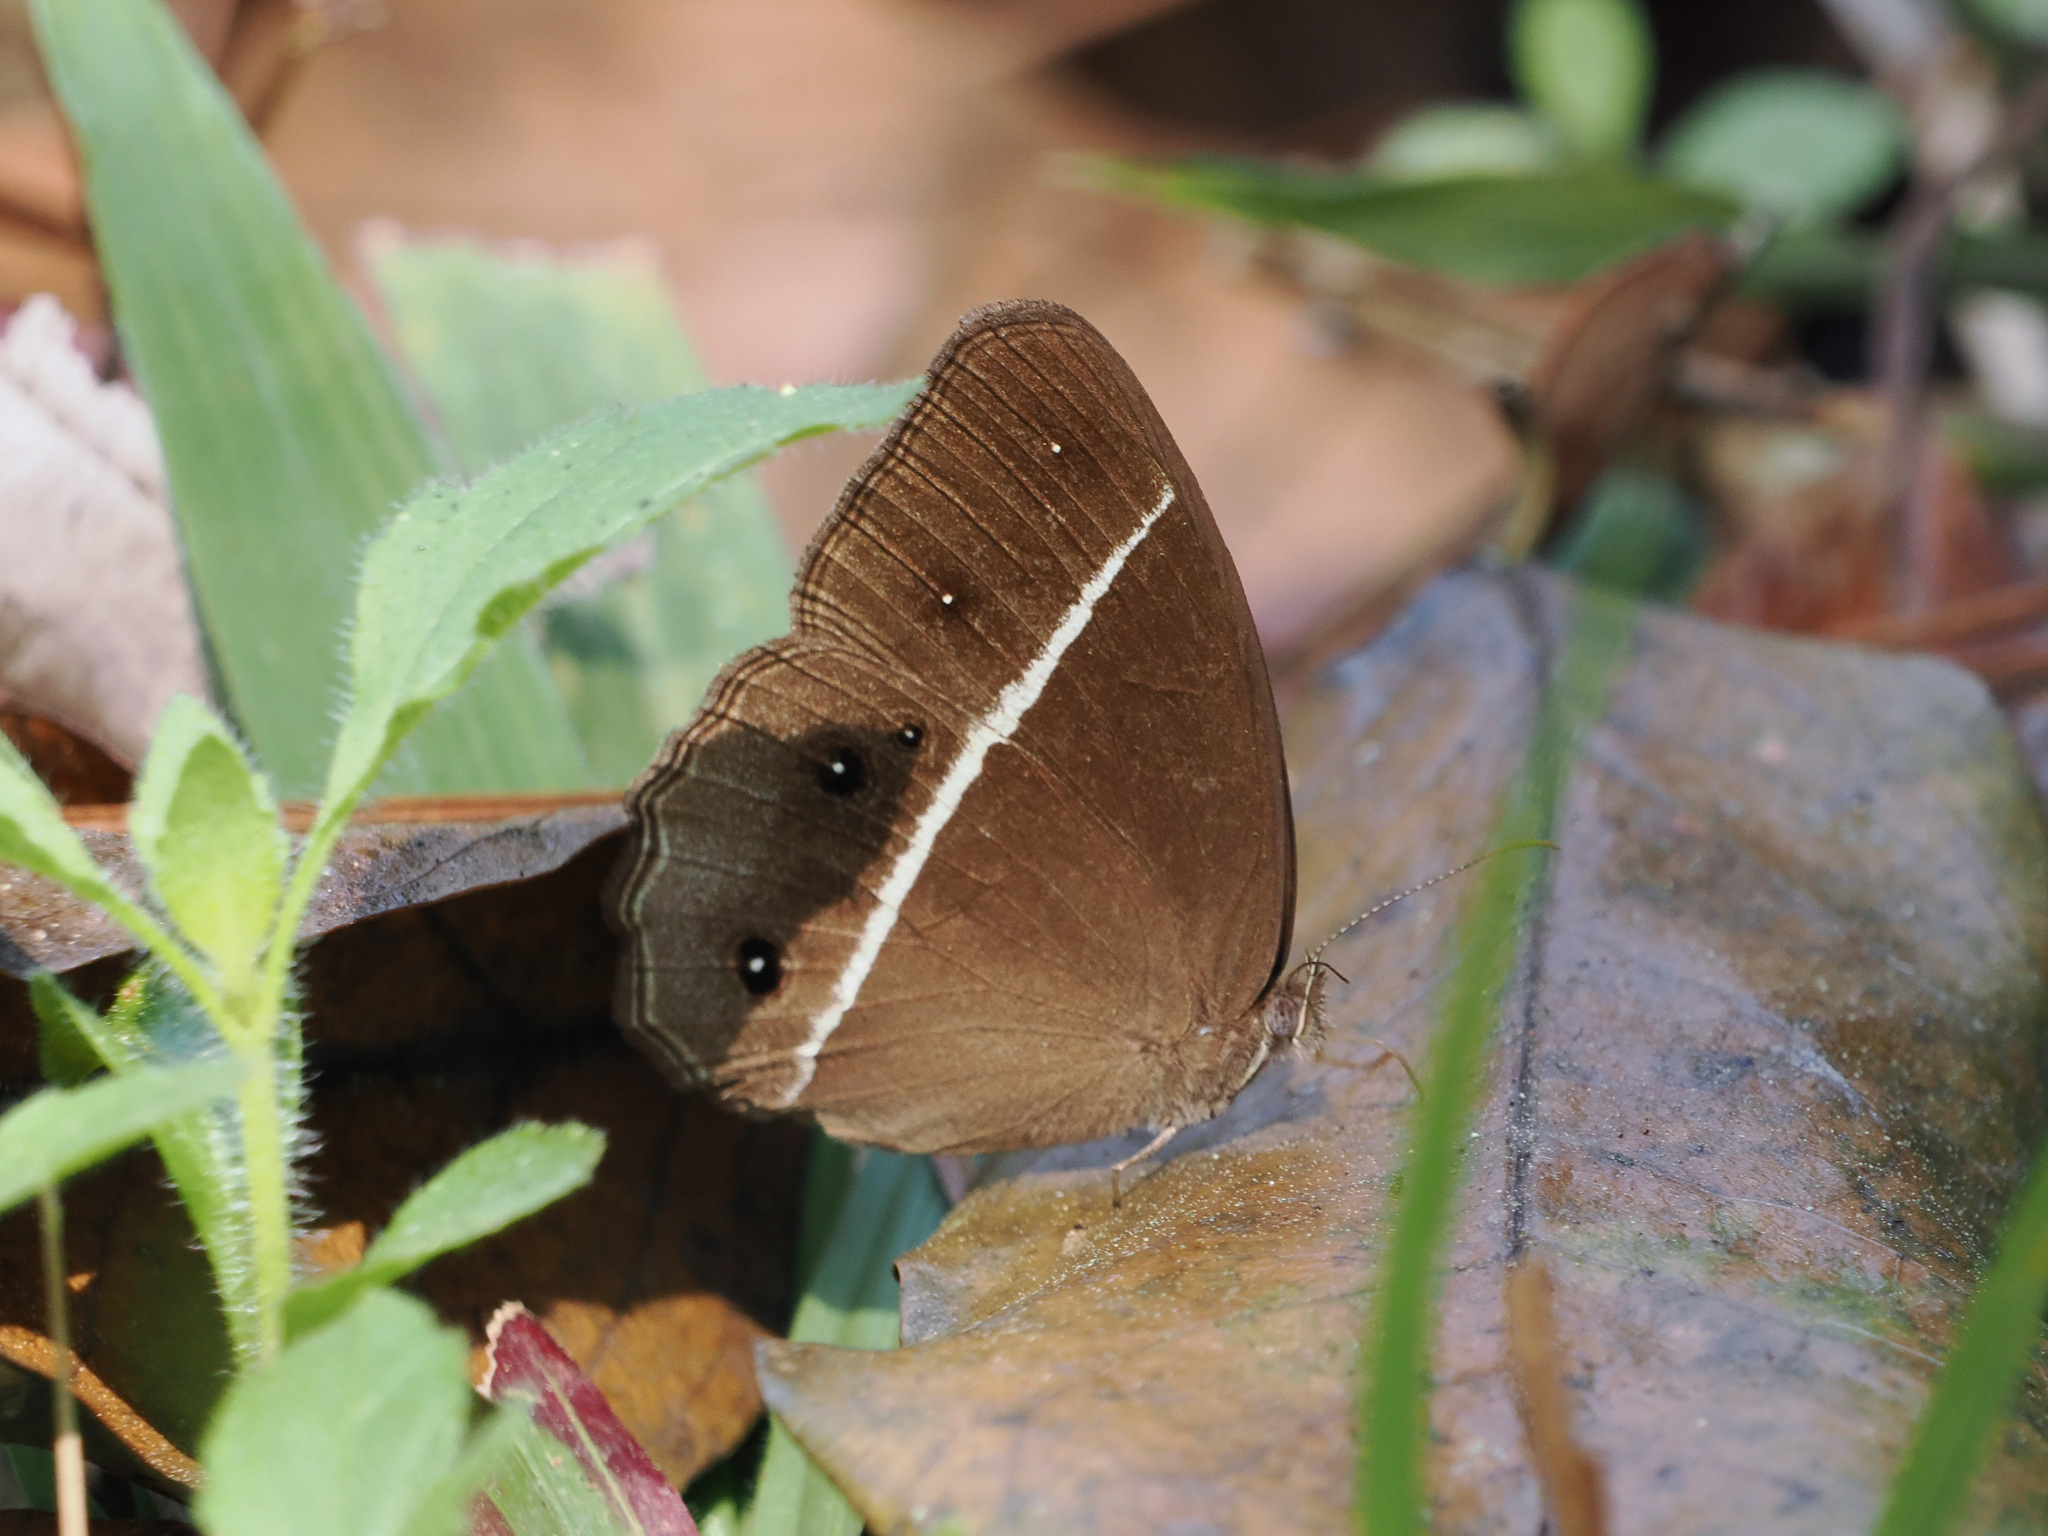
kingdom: Animalia
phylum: Arthropoda
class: Insecta
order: Lepidoptera
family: Nymphalidae
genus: Orsotriaena
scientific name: Orsotriaena medus
